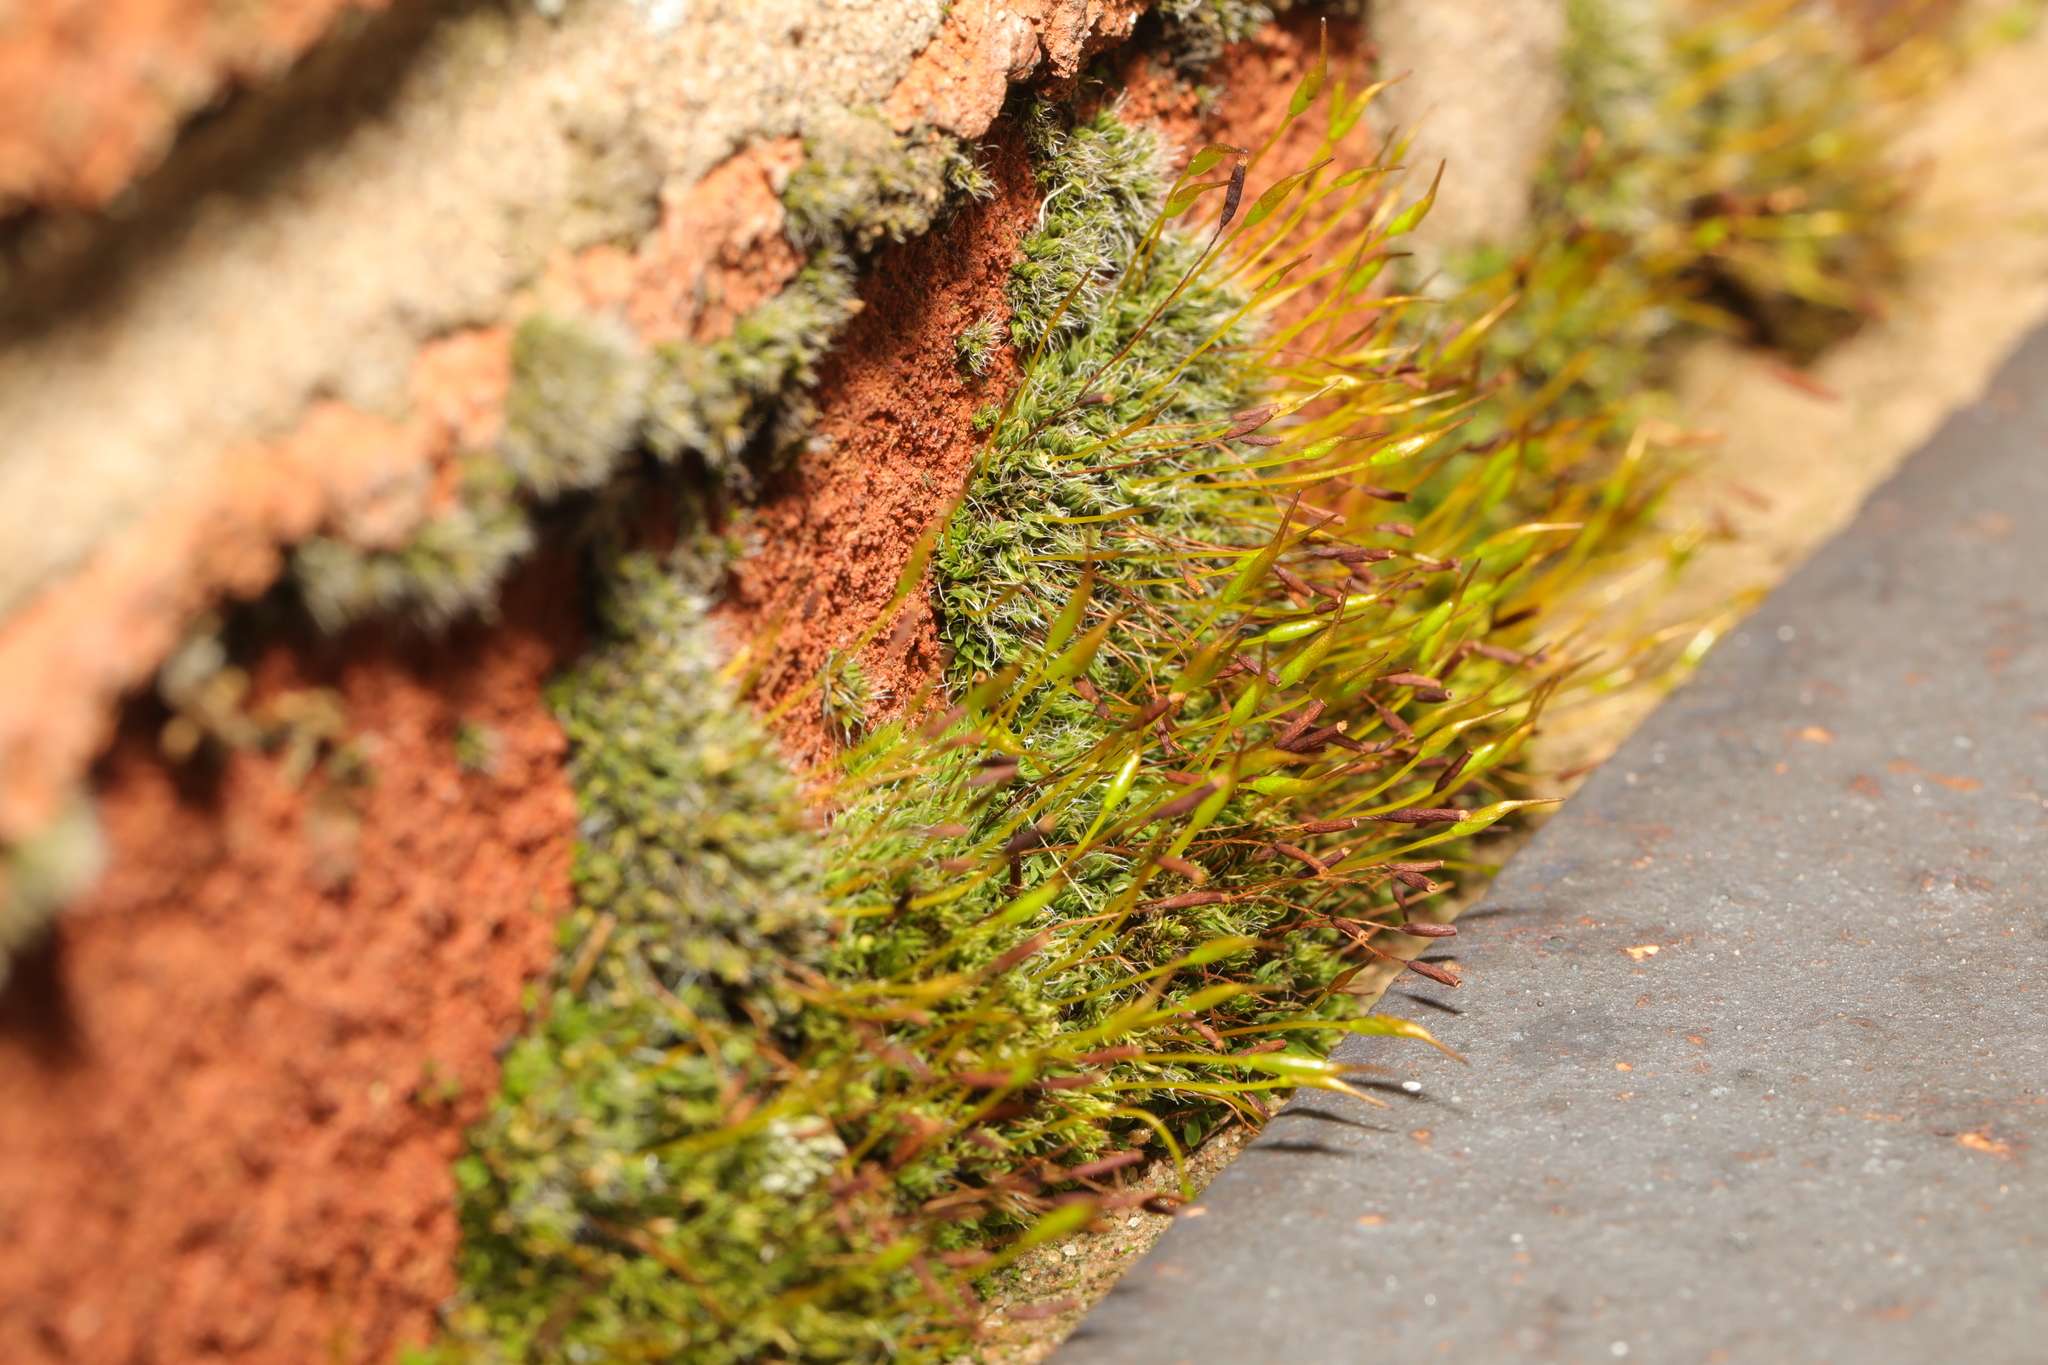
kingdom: Plantae
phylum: Bryophyta
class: Bryopsida
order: Pottiales
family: Pottiaceae
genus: Tortula
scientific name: Tortula muralis
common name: Wall screw-moss
